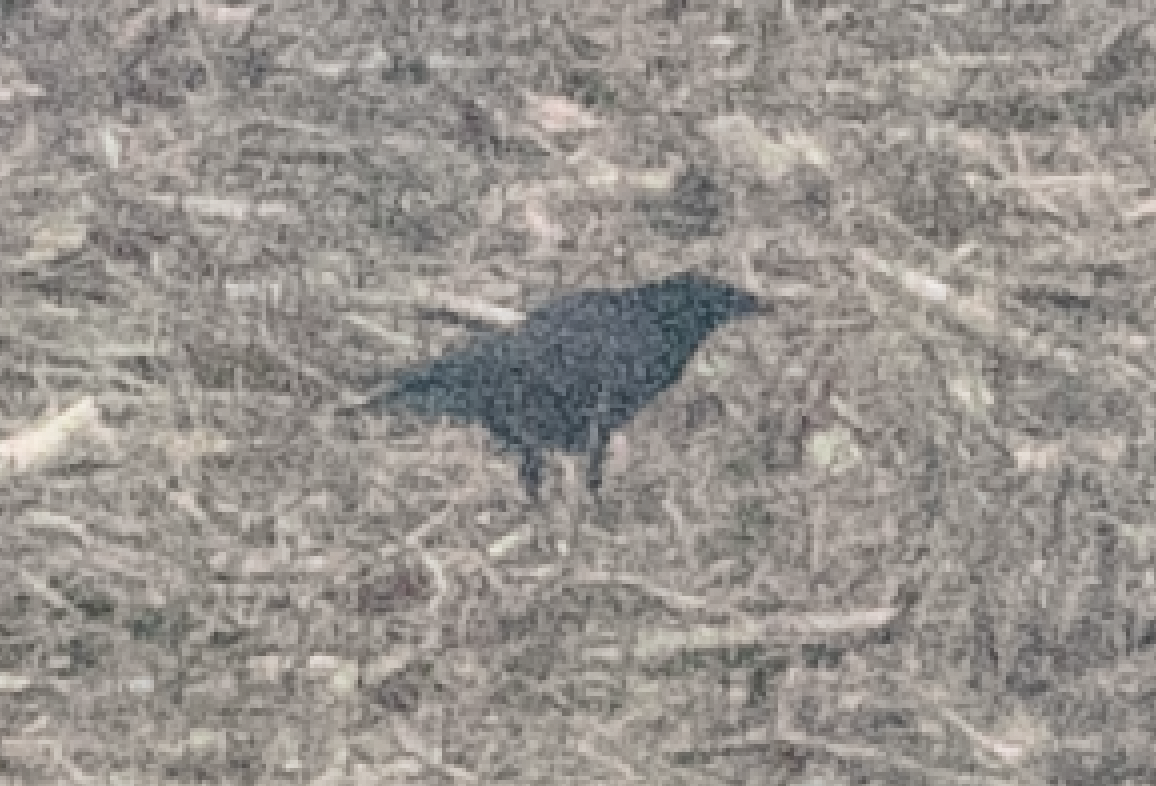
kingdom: Animalia
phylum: Chordata
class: Aves
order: Passeriformes
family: Corvidae
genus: Corvus
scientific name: Corvus corone
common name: Carrion crow
